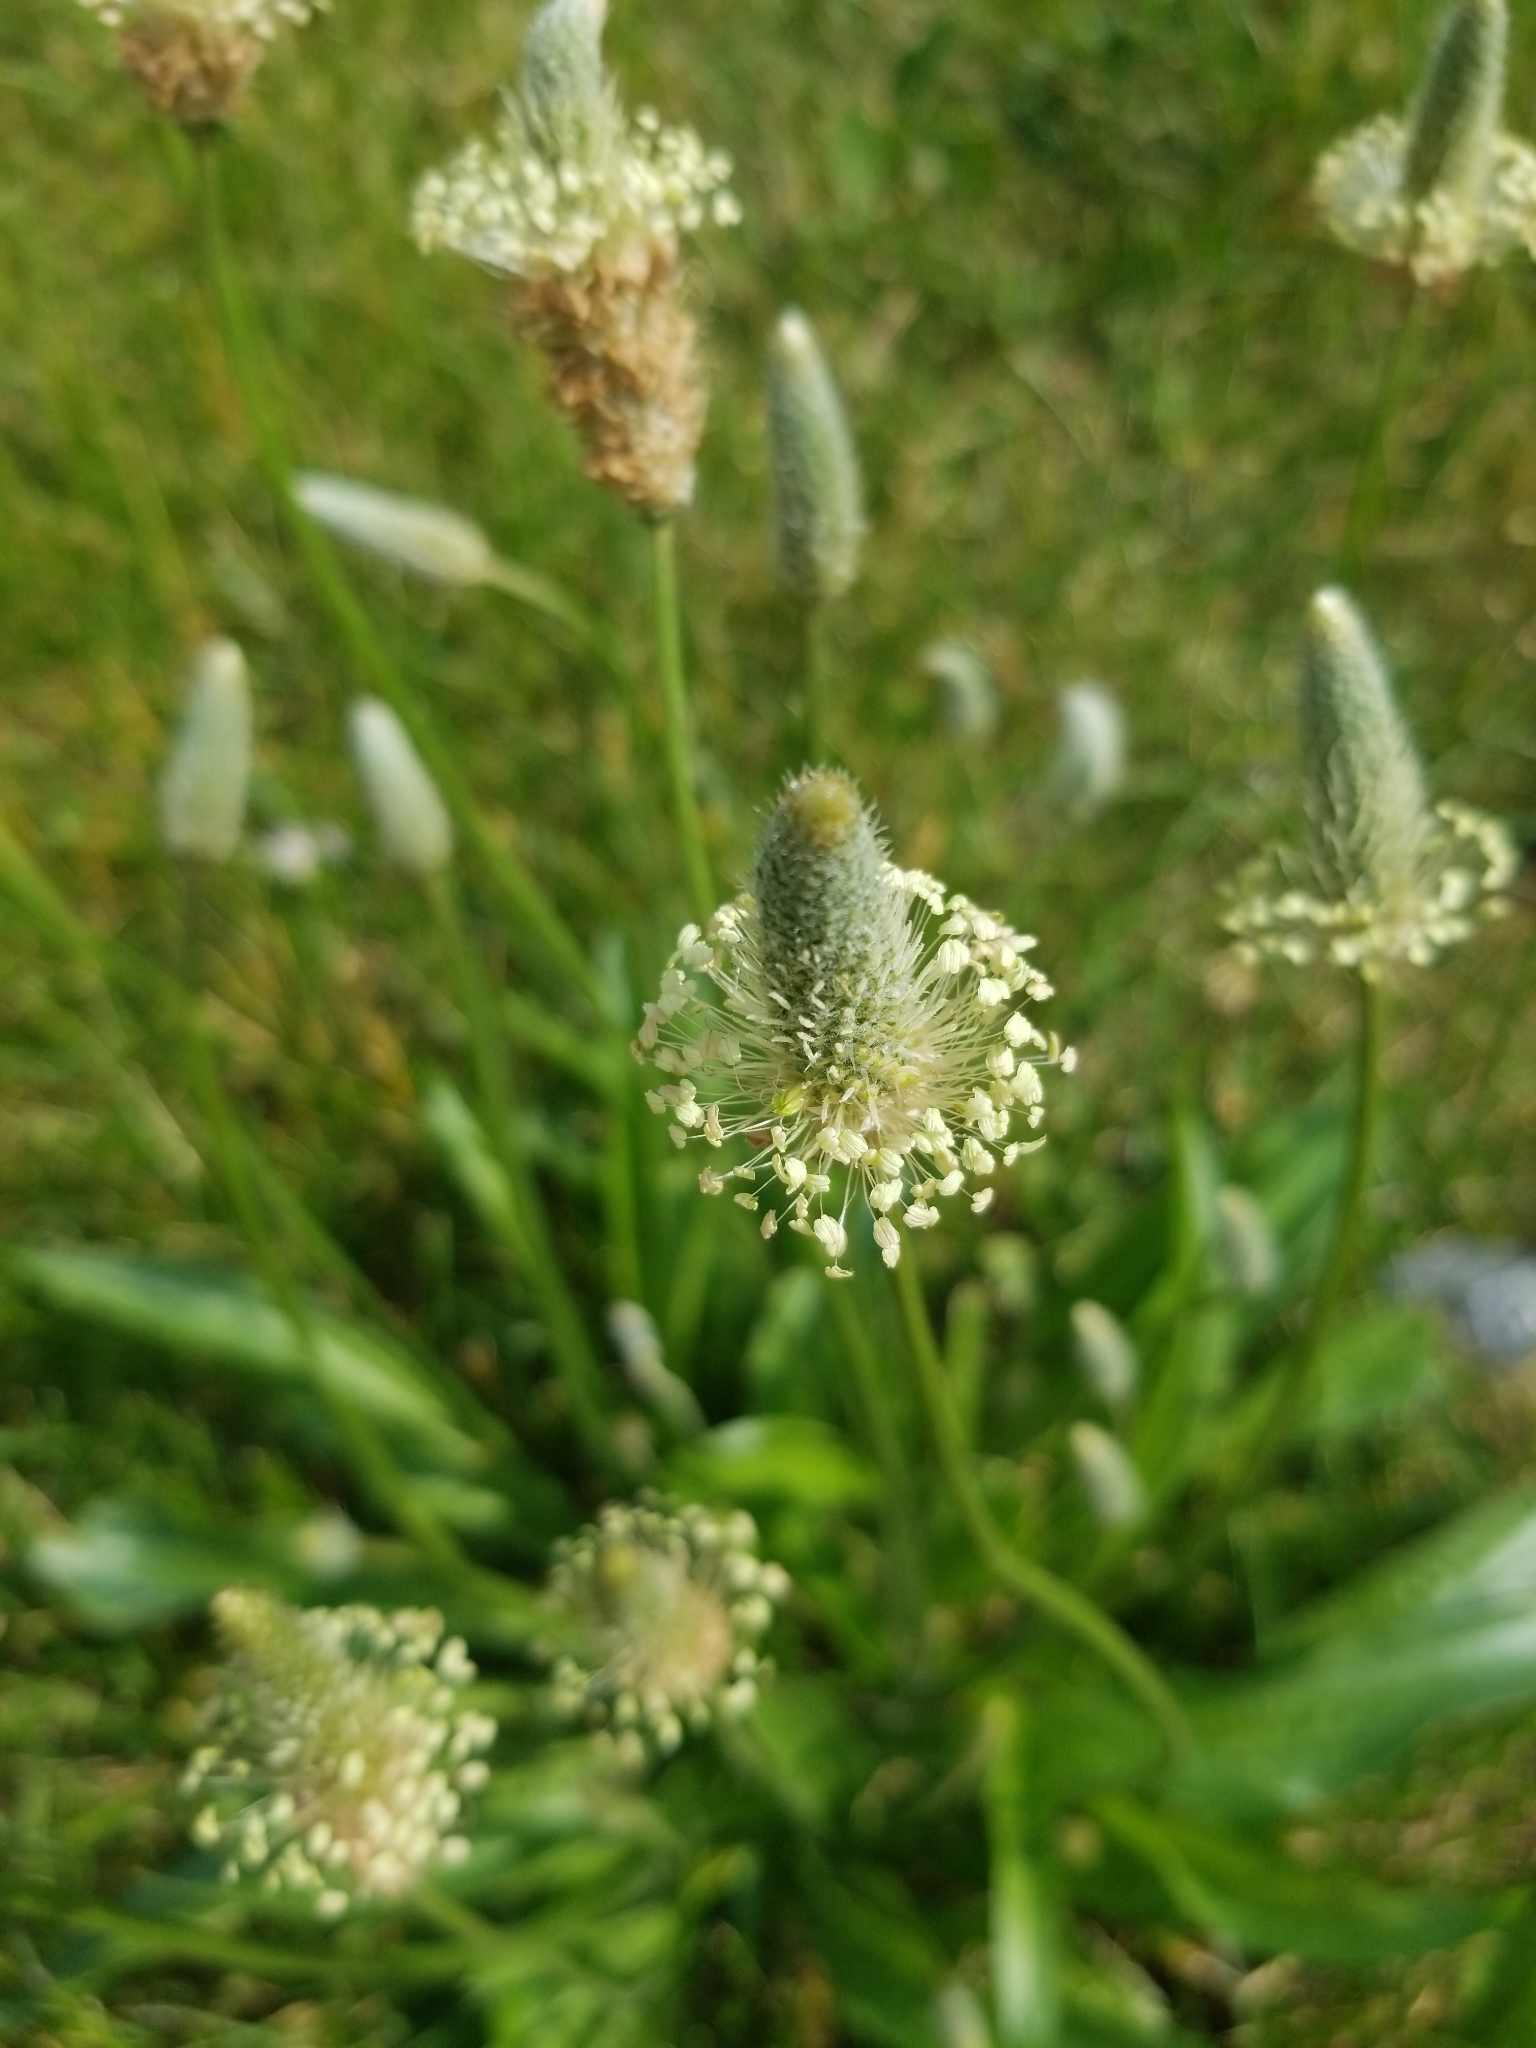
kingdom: Plantae
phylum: Tracheophyta
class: Magnoliopsida
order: Lamiales
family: Plantaginaceae
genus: Plantago
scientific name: Plantago lanceolata
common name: Ribwort plantain
